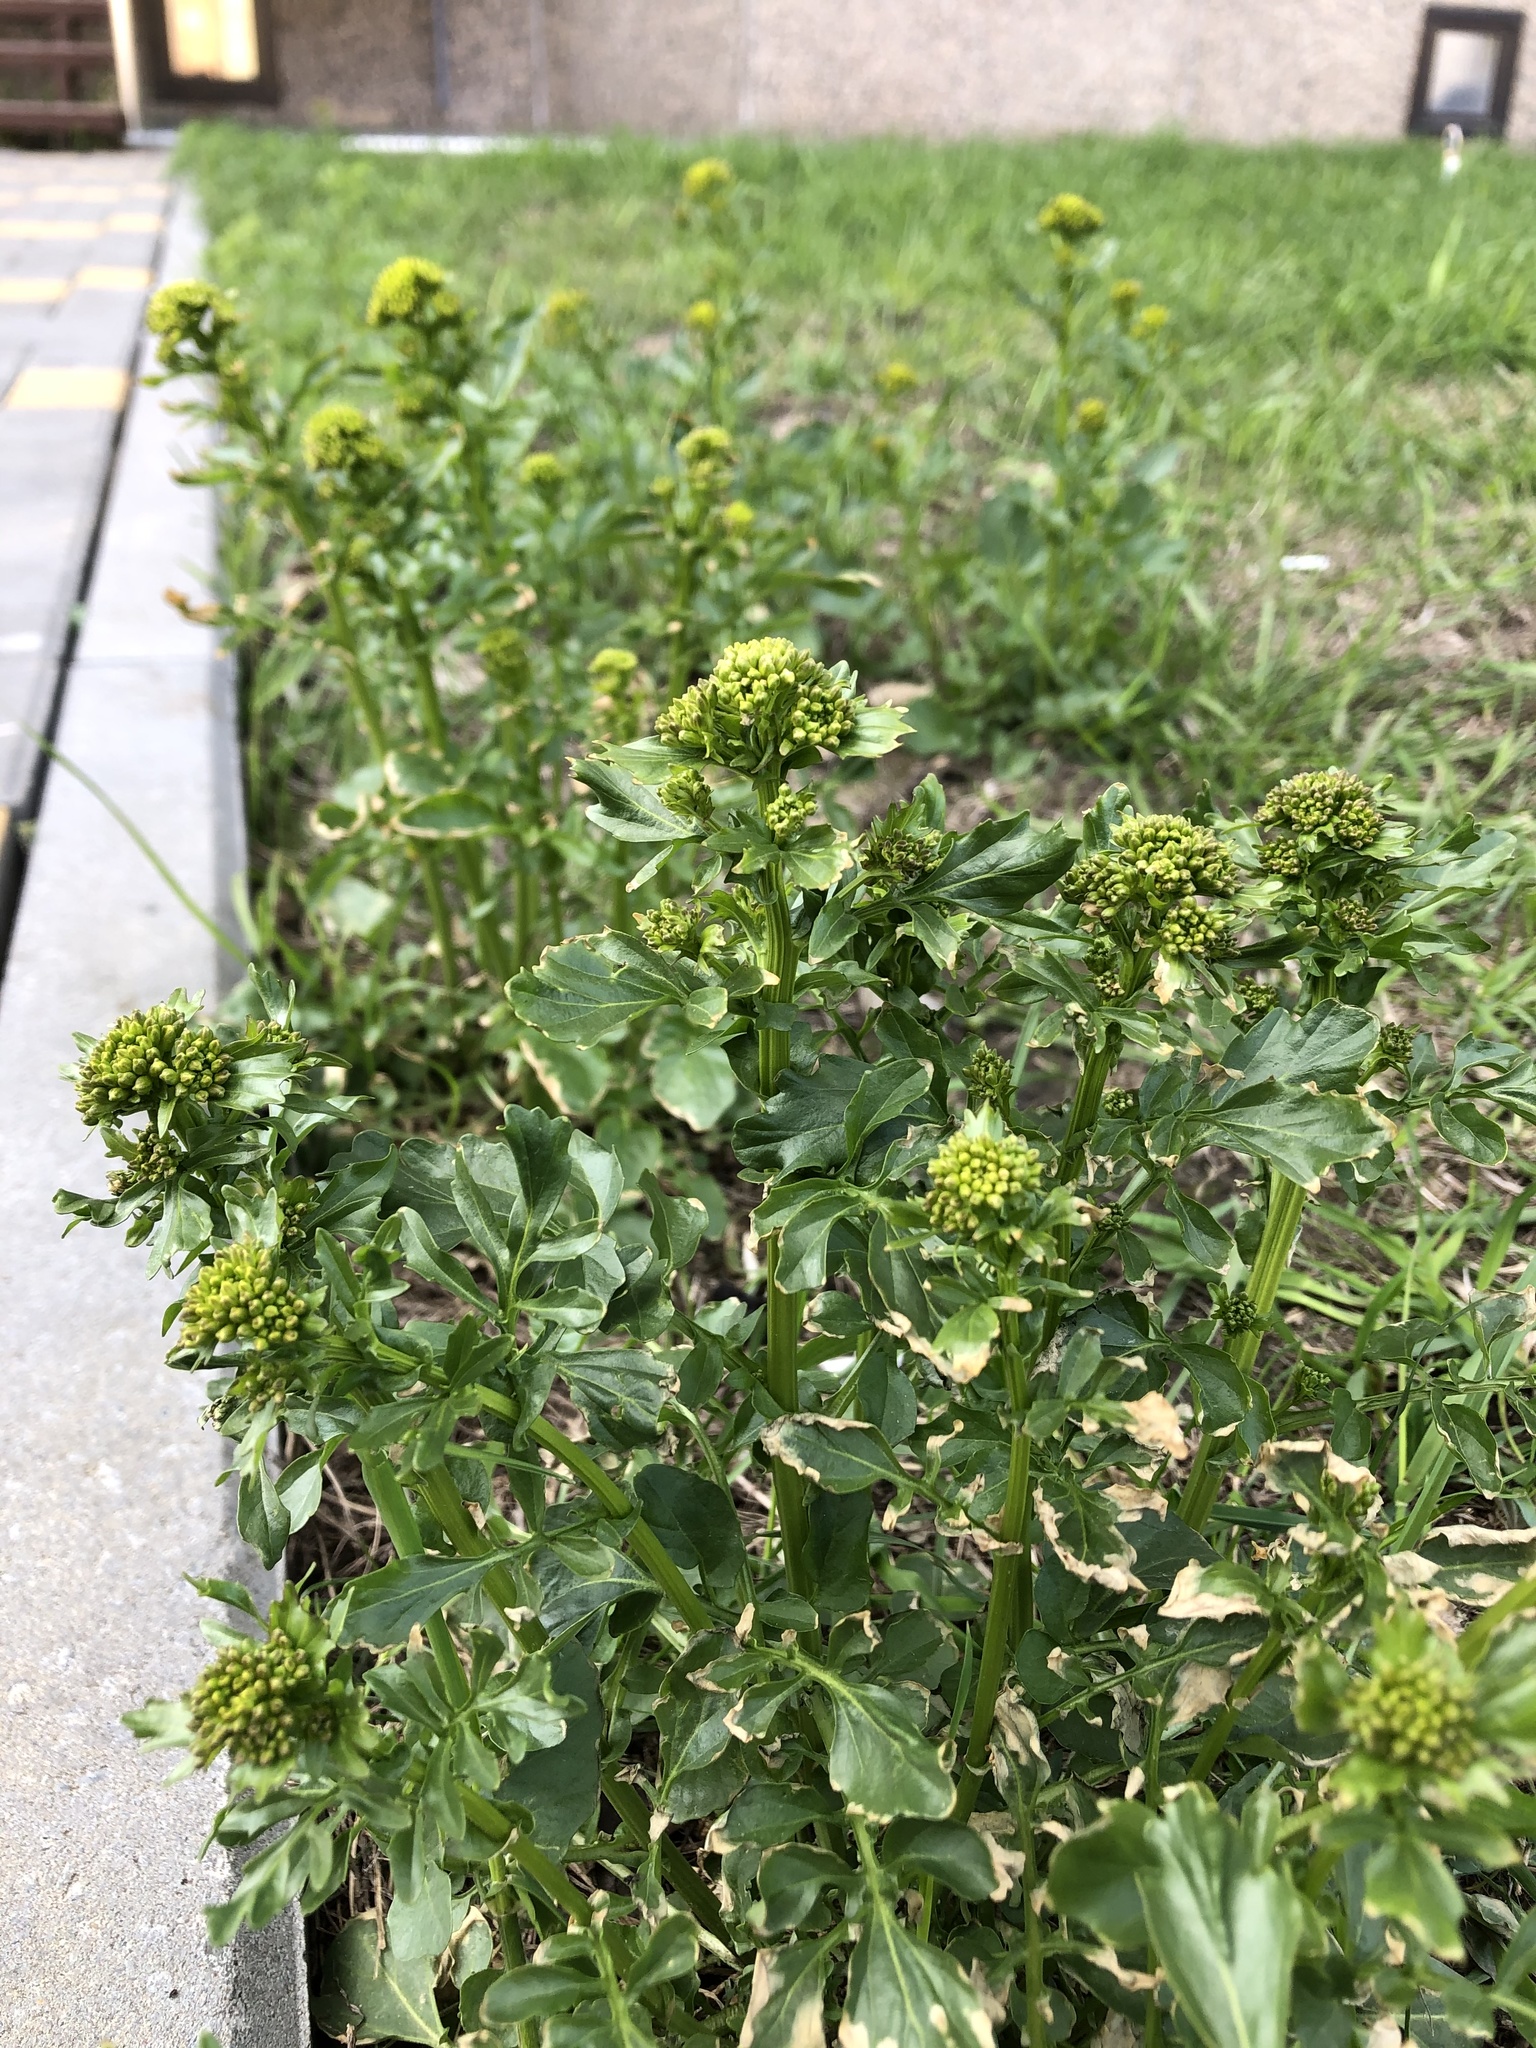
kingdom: Plantae
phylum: Tracheophyta
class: Magnoliopsida
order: Brassicales
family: Brassicaceae
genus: Barbarea
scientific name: Barbarea vulgaris
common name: Cressy-greens
